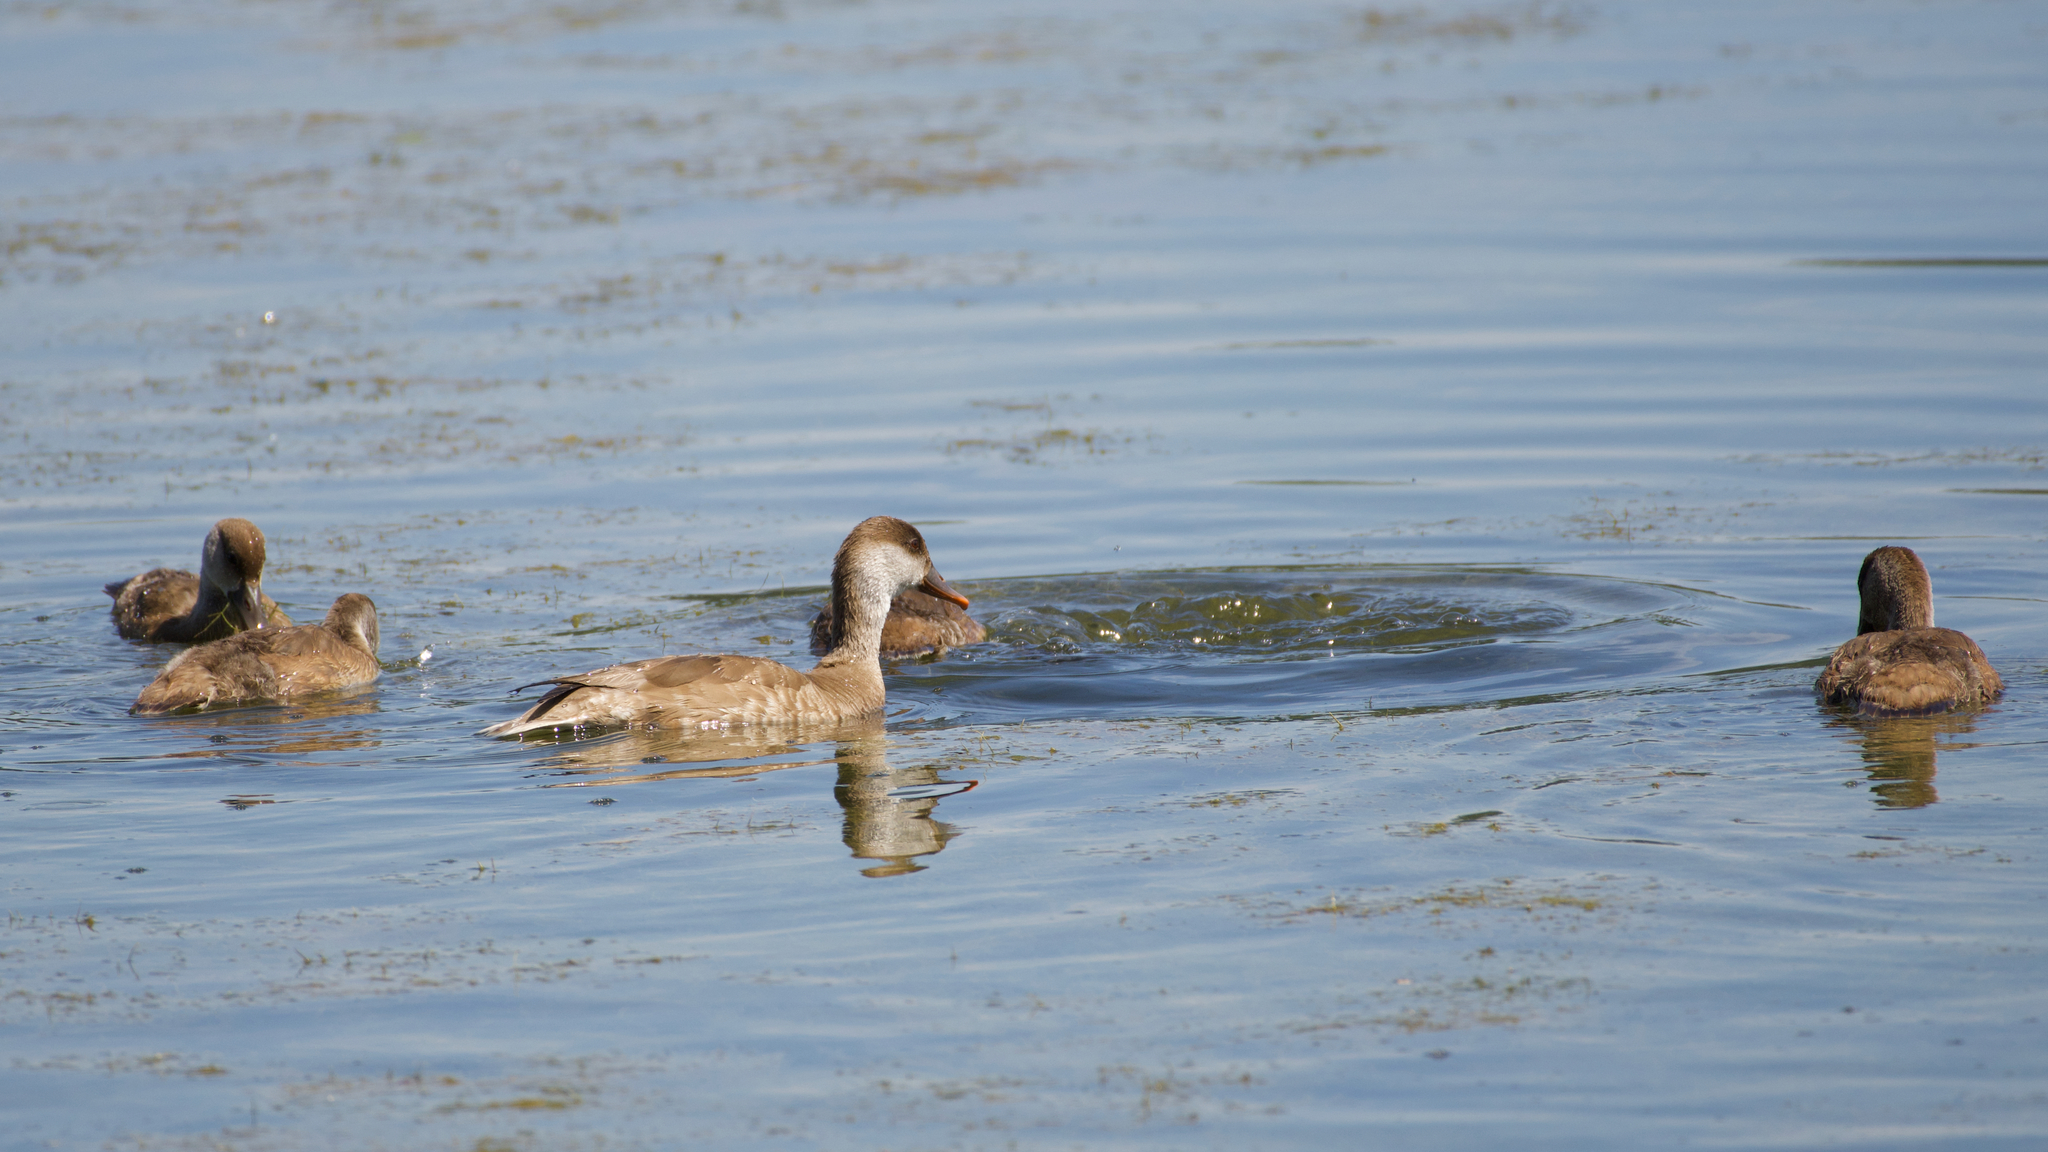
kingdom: Animalia
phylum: Chordata
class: Aves
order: Anseriformes
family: Anatidae
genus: Netta
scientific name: Netta rufina
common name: Red-crested pochard
